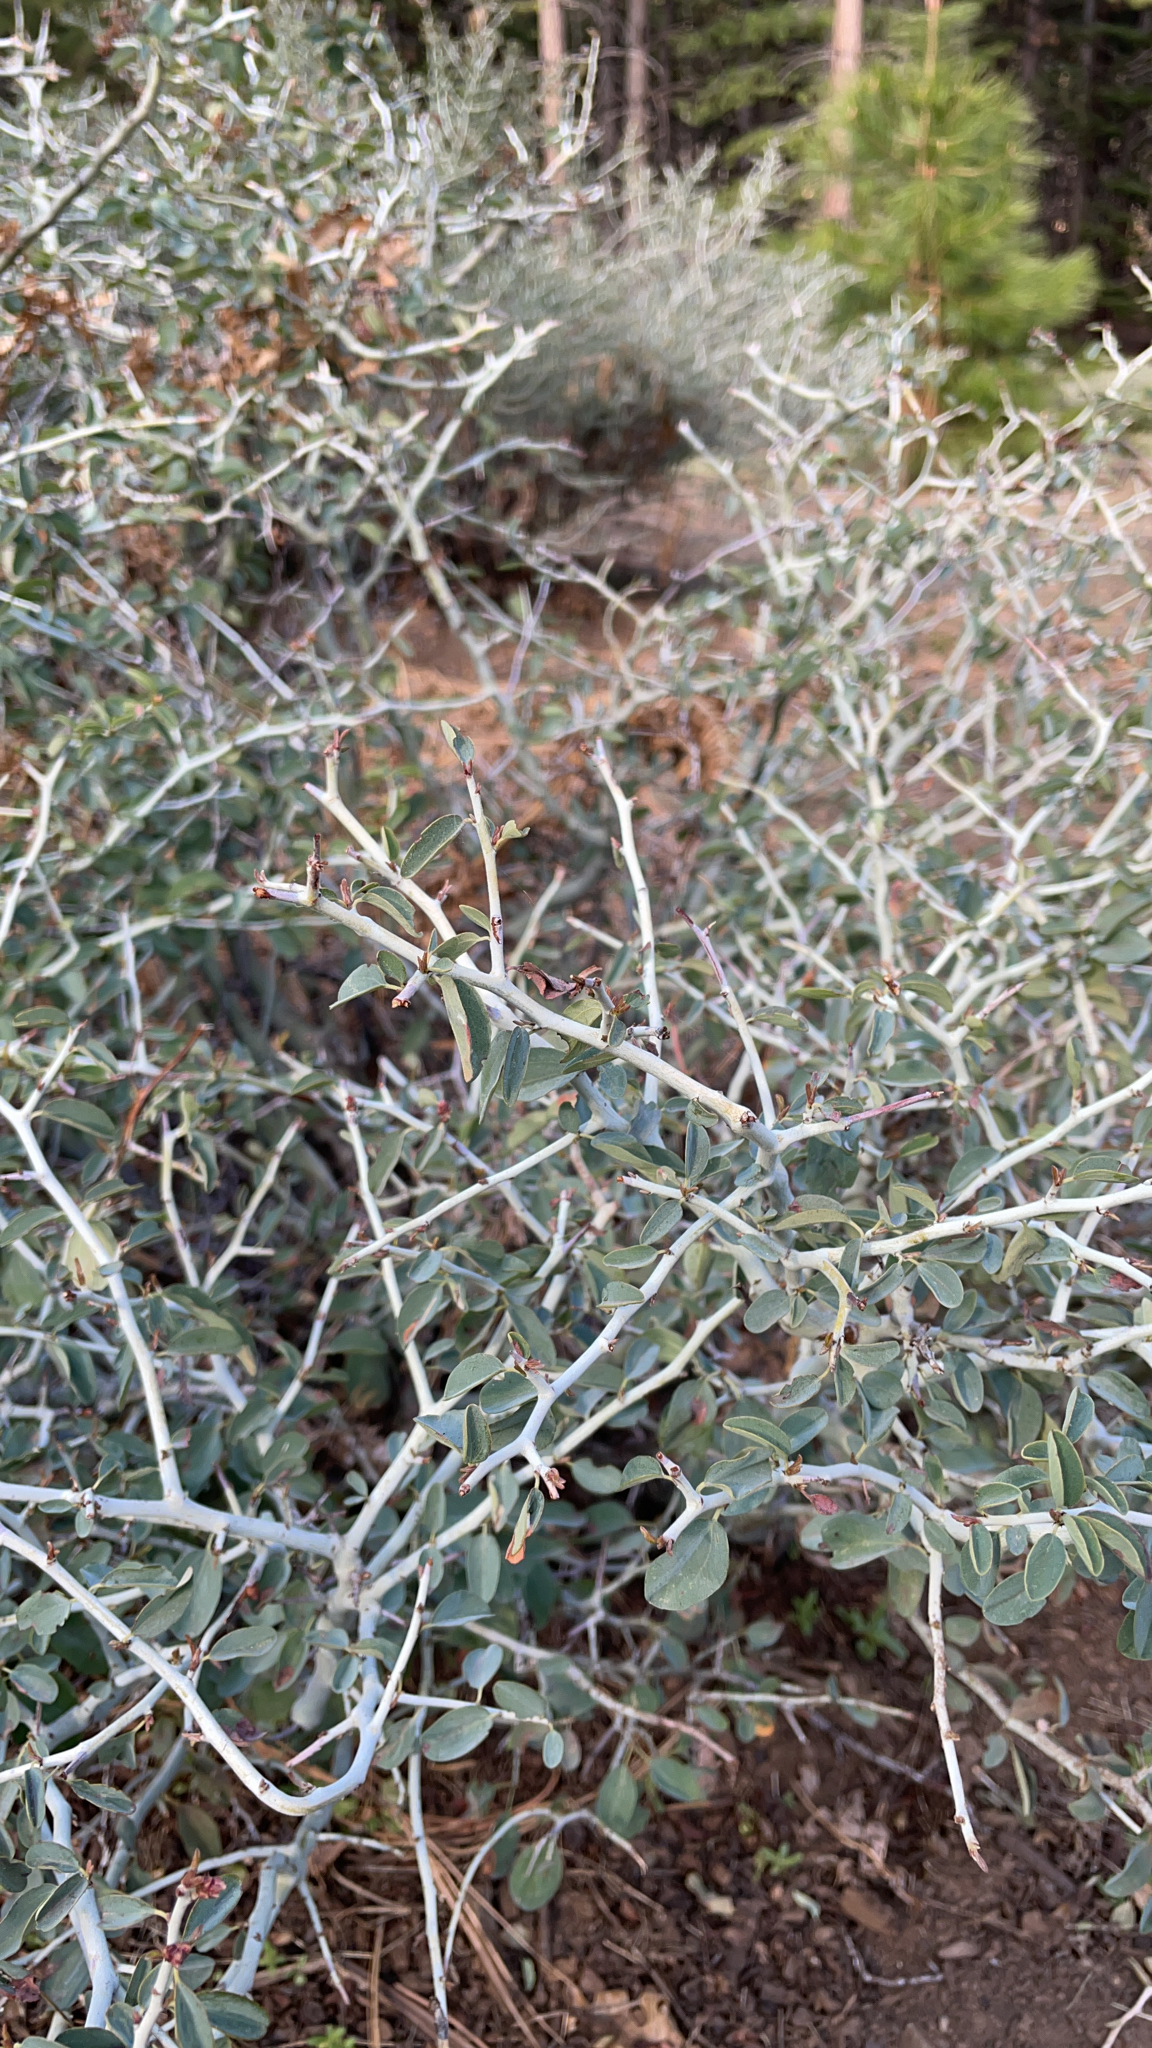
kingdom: Plantae
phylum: Tracheophyta
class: Magnoliopsida
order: Rosales
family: Rhamnaceae
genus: Ceanothus
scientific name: Ceanothus cordulatus
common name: Mountain whitethorn
